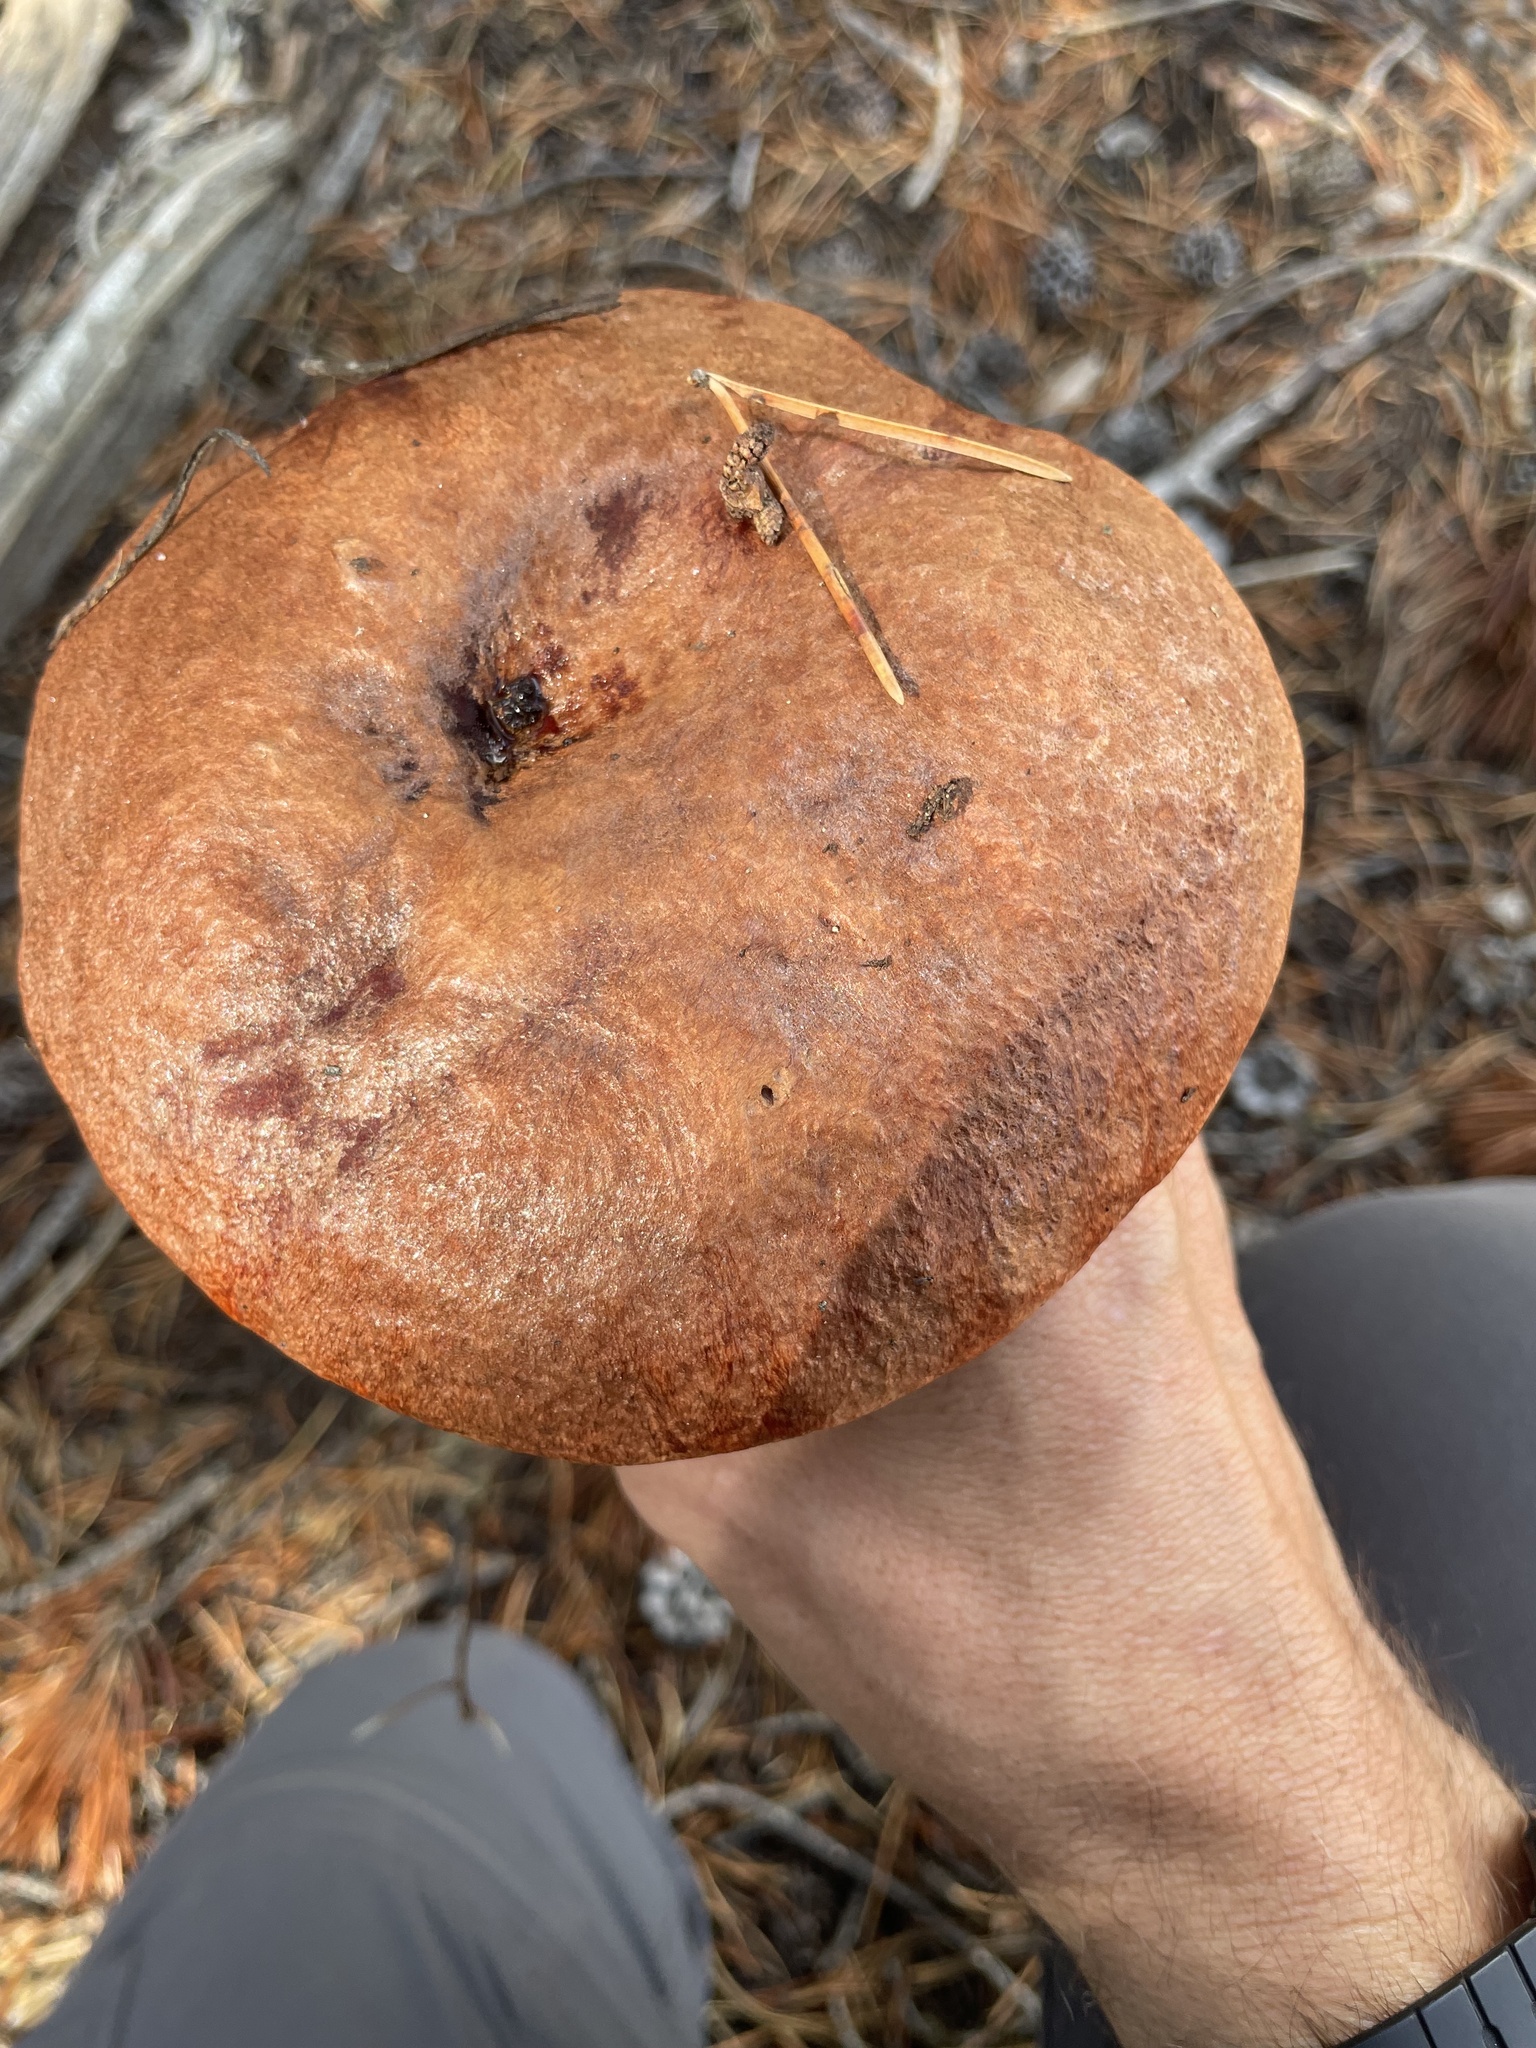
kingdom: Fungi
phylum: Basidiomycota
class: Agaricomycetes
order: Boletales
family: Boletaceae
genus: Leccinum
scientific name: Leccinum insigne
